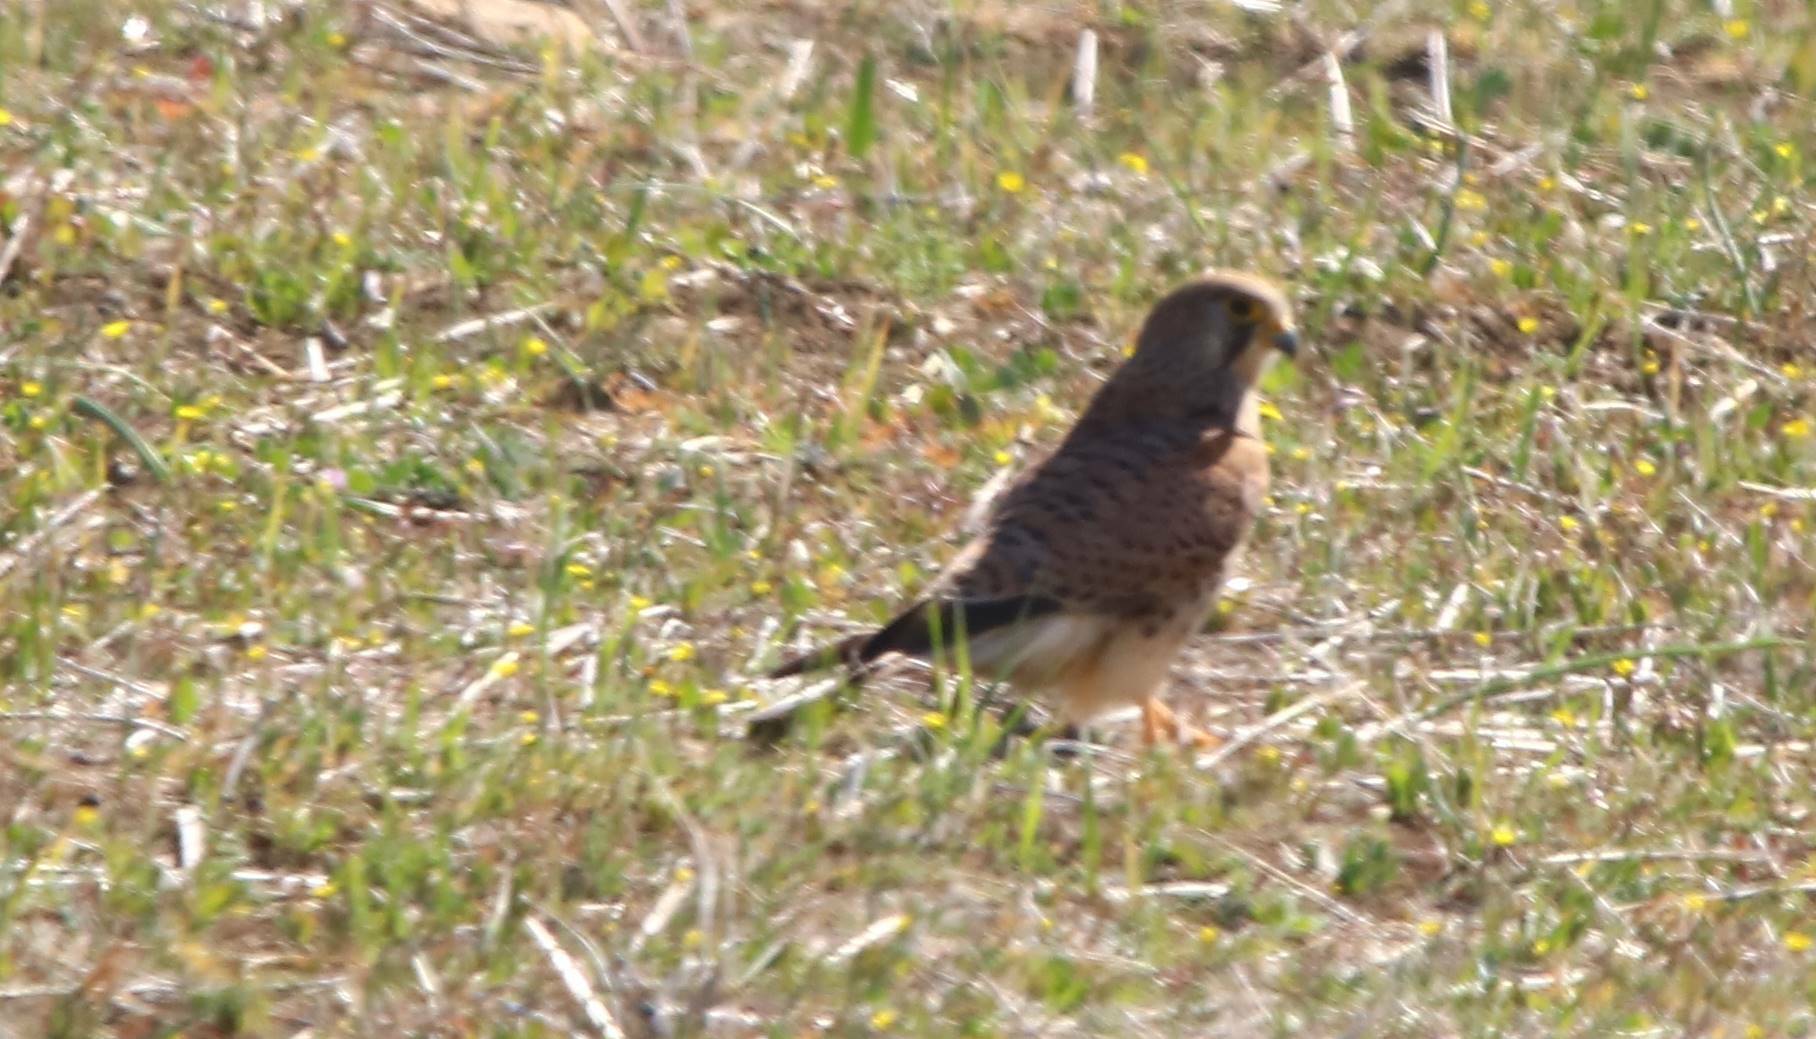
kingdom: Animalia
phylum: Chordata
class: Aves
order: Falconiformes
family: Falconidae
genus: Falco
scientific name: Falco tinnunculus
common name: Common kestrel
